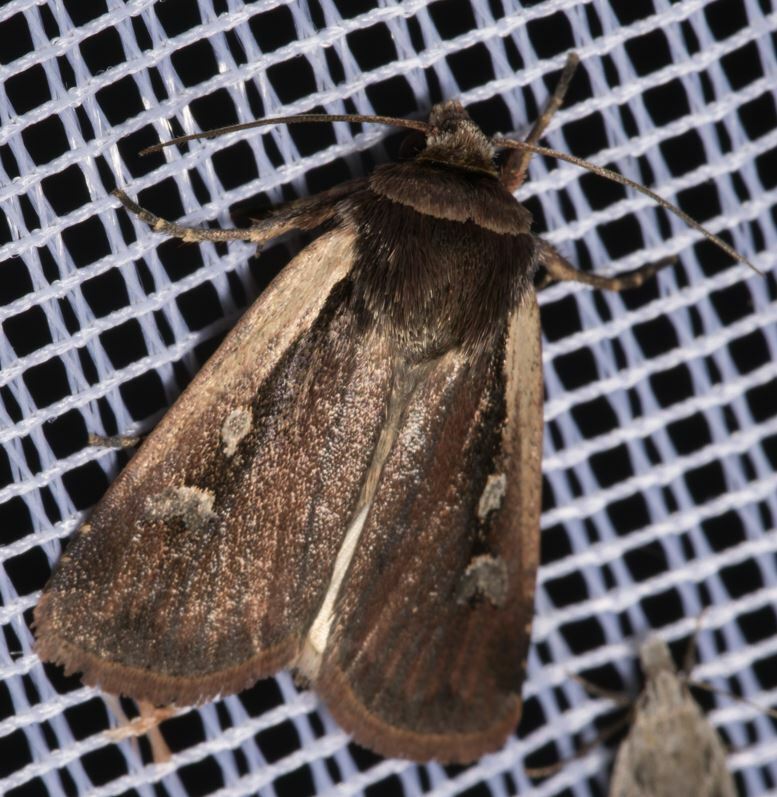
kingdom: Animalia
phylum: Arthropoda
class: Insecta
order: Lepidoptera
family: Noctuidae
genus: Ochropleura
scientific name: Ochropleura plecta
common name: Flame shoulder
